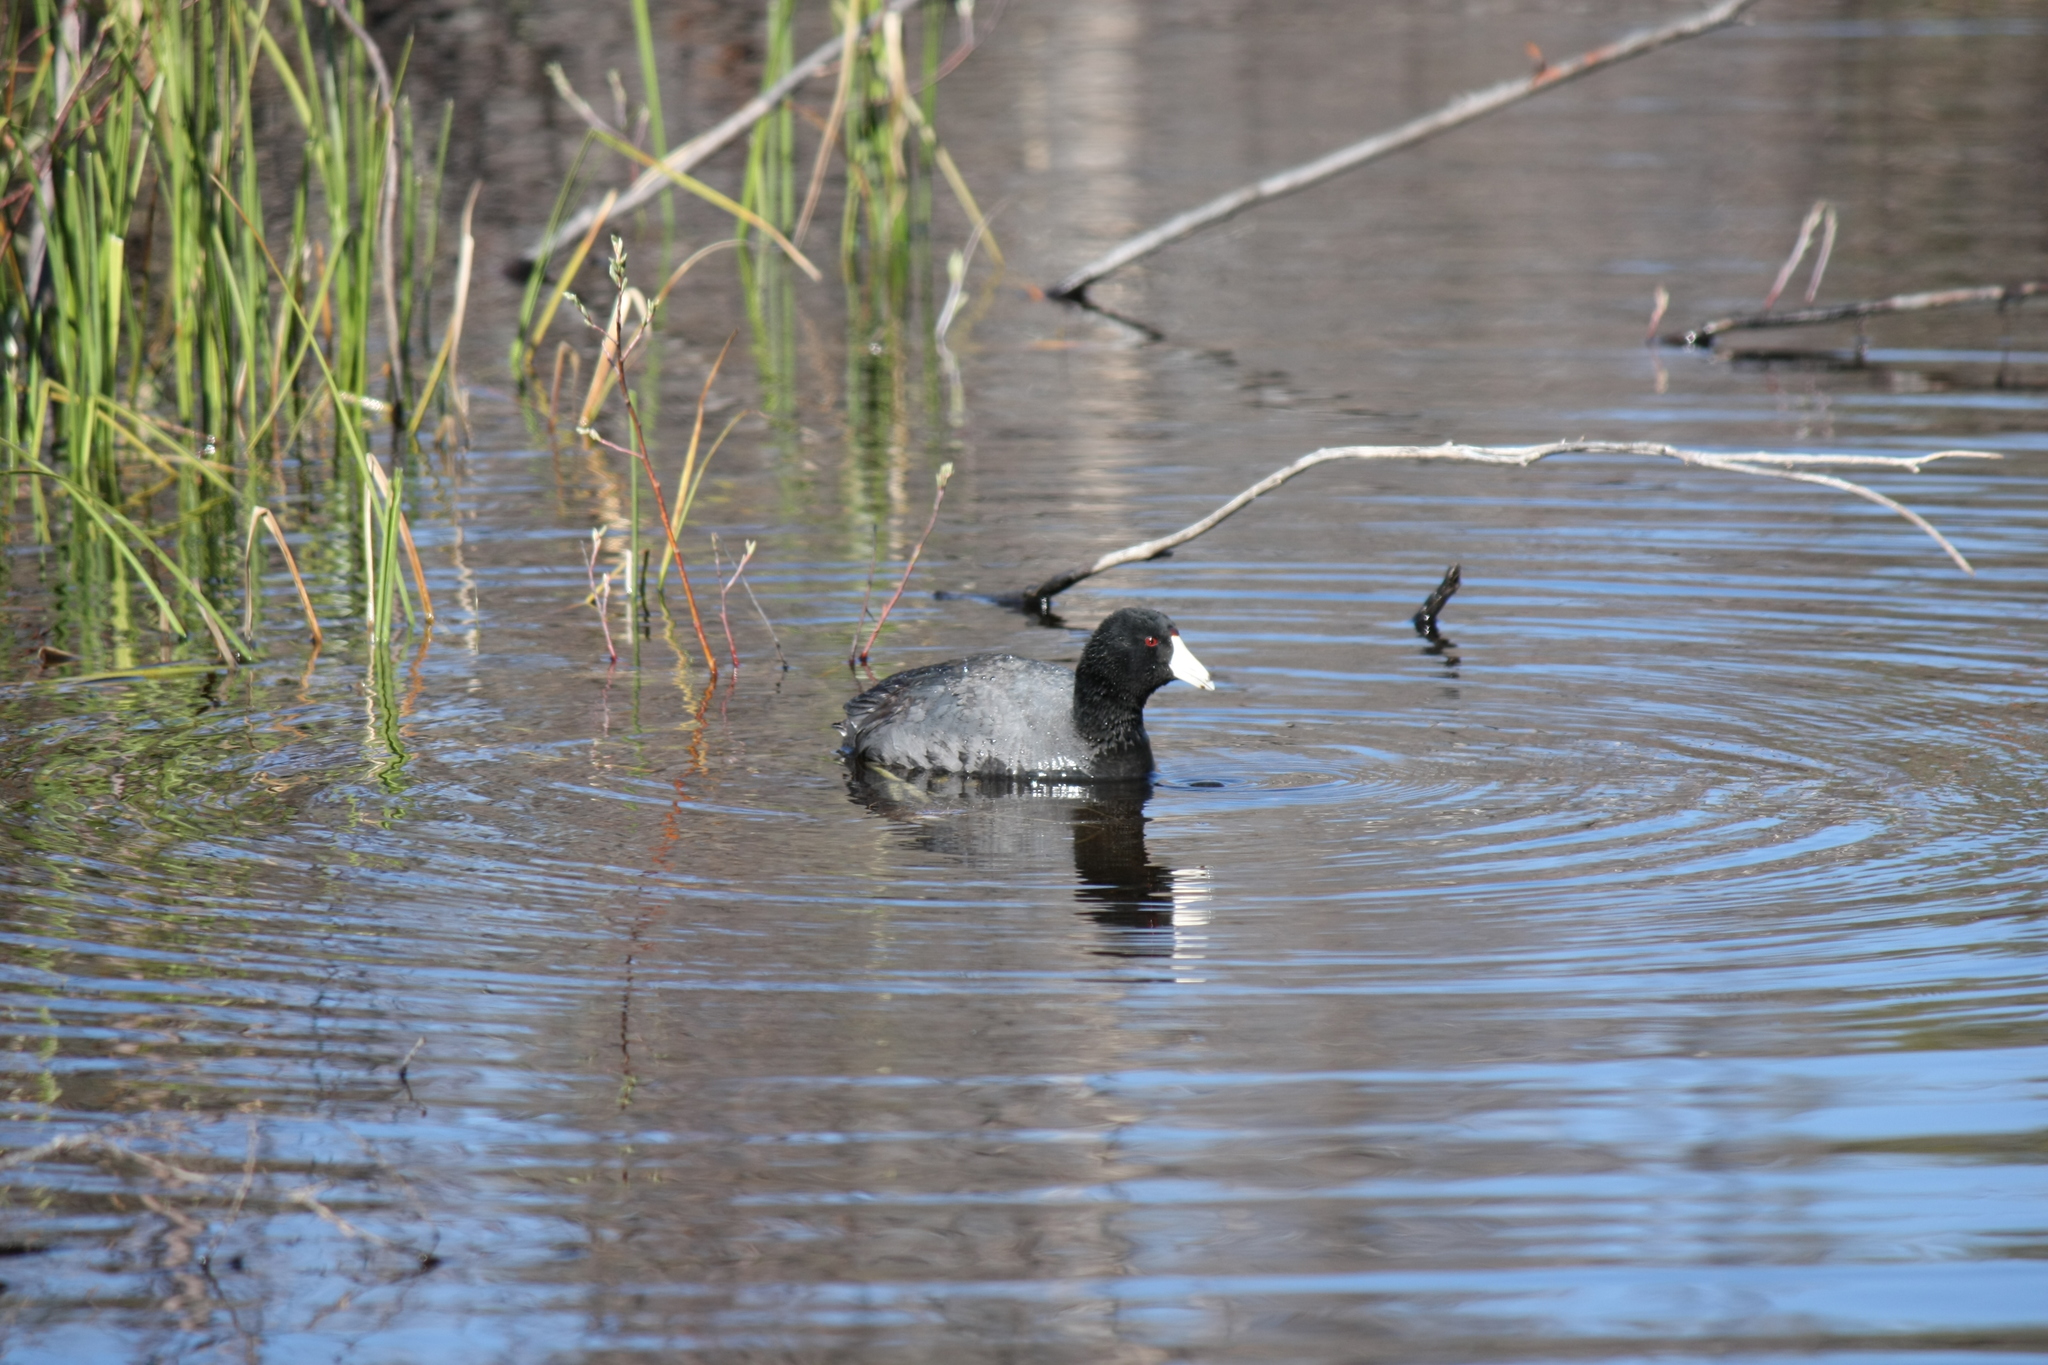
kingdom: Animalia
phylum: Chordata
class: Aves
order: Gruiformes
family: Rallidae
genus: Fulica
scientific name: Fulica americana
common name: American coot
